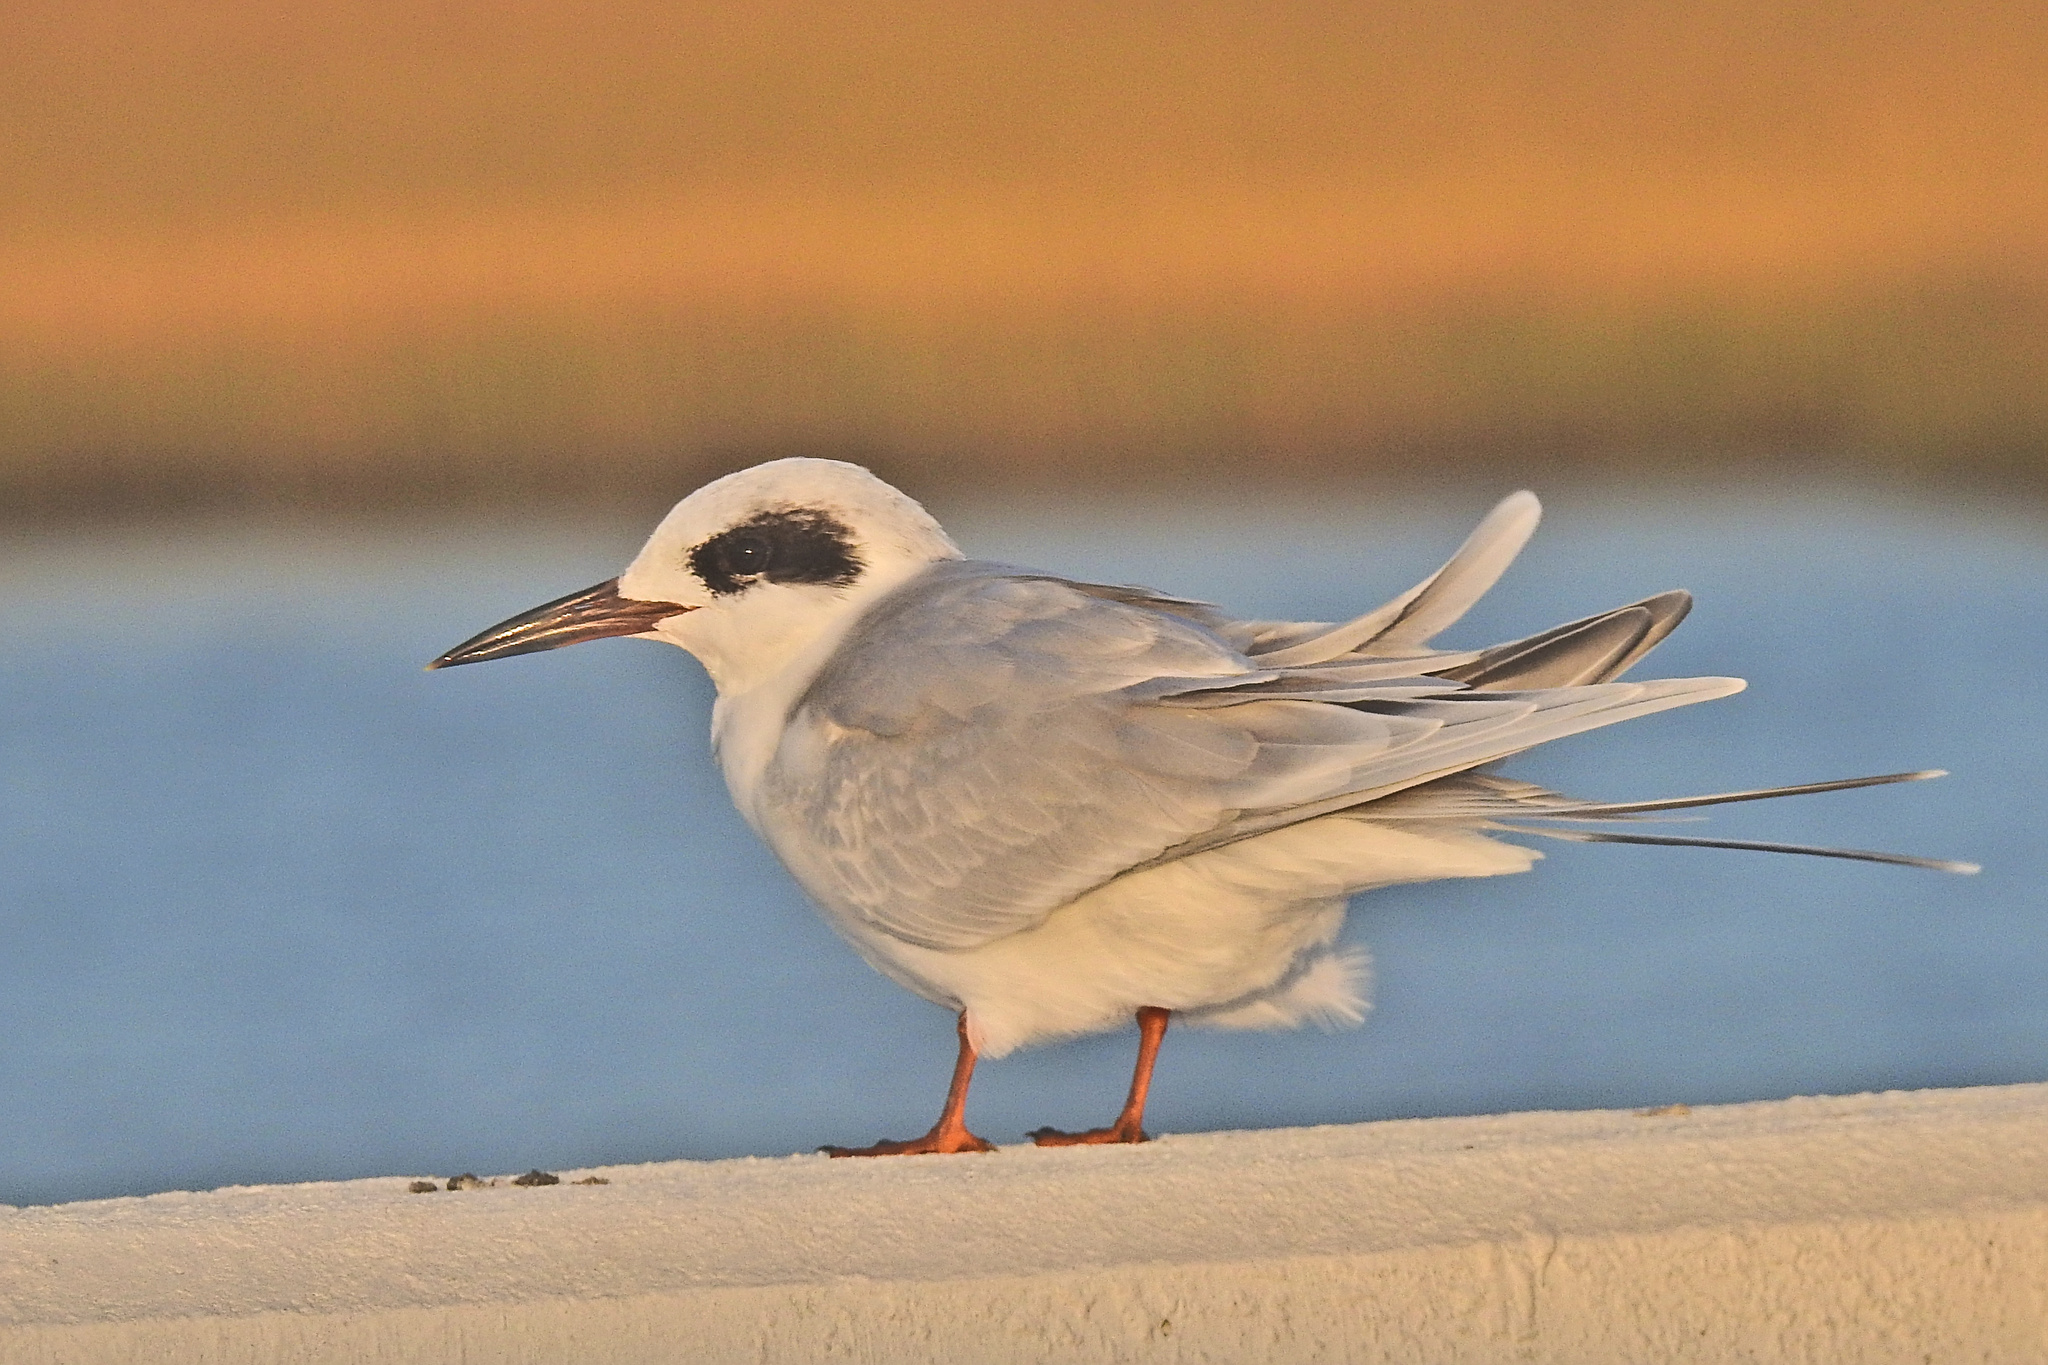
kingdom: Animalia
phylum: Chordata
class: Aves
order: Charadriiformes
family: Laridae
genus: Sterna
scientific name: Sterna forsteri
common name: Forster's tern
